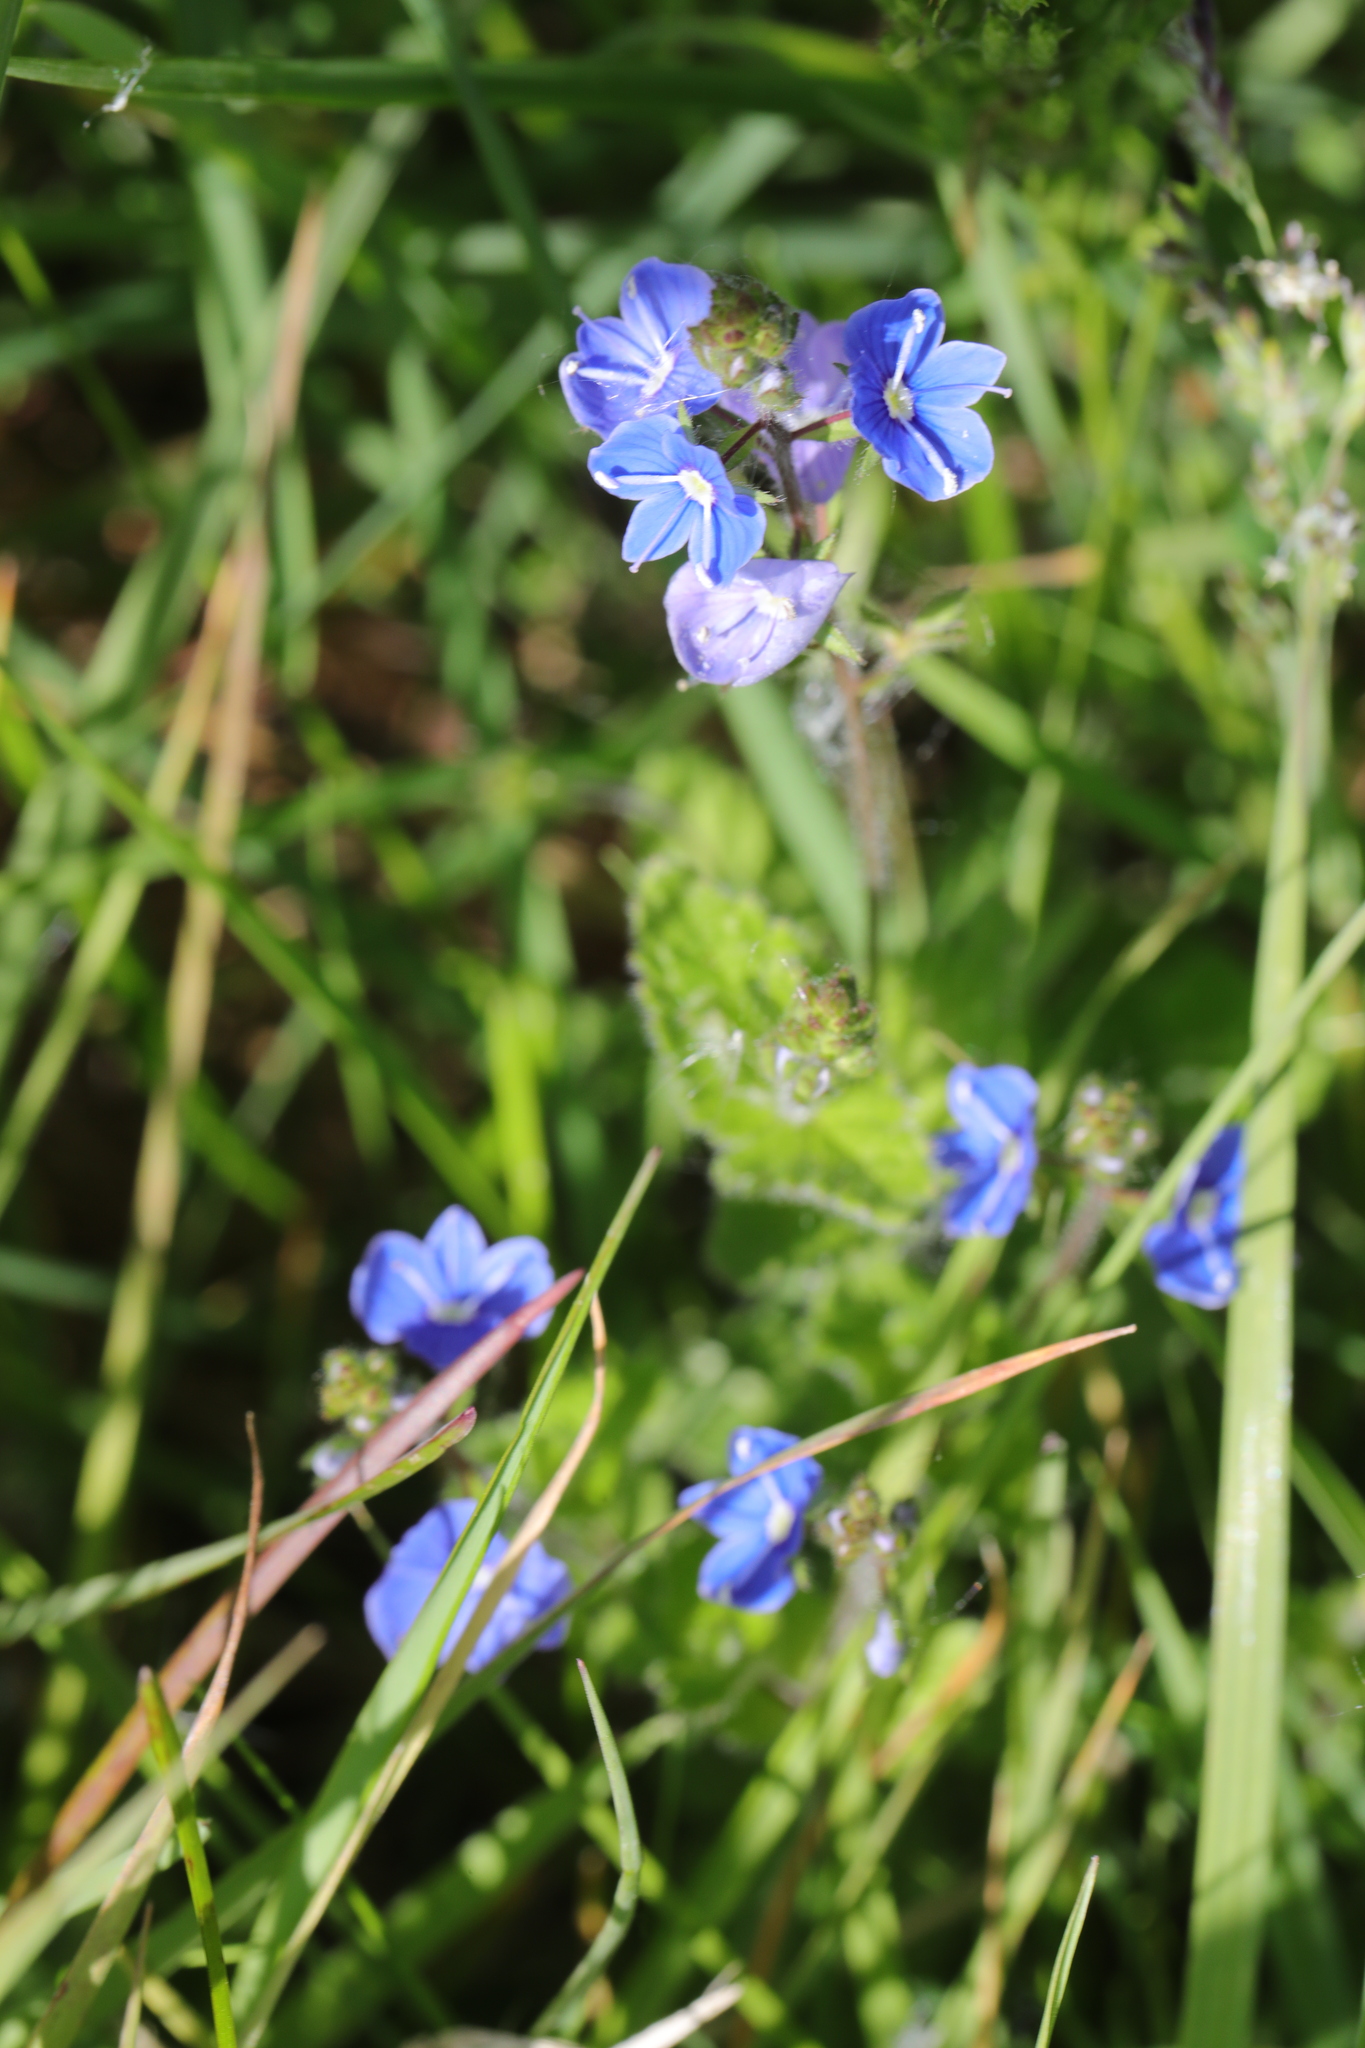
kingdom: Plantae
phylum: Tracheophyta
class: Magnoliopsida
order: Lamiales
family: Plantaginaceae
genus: Veronica
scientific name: Veronica chamaedrys
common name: Germander speedwell
